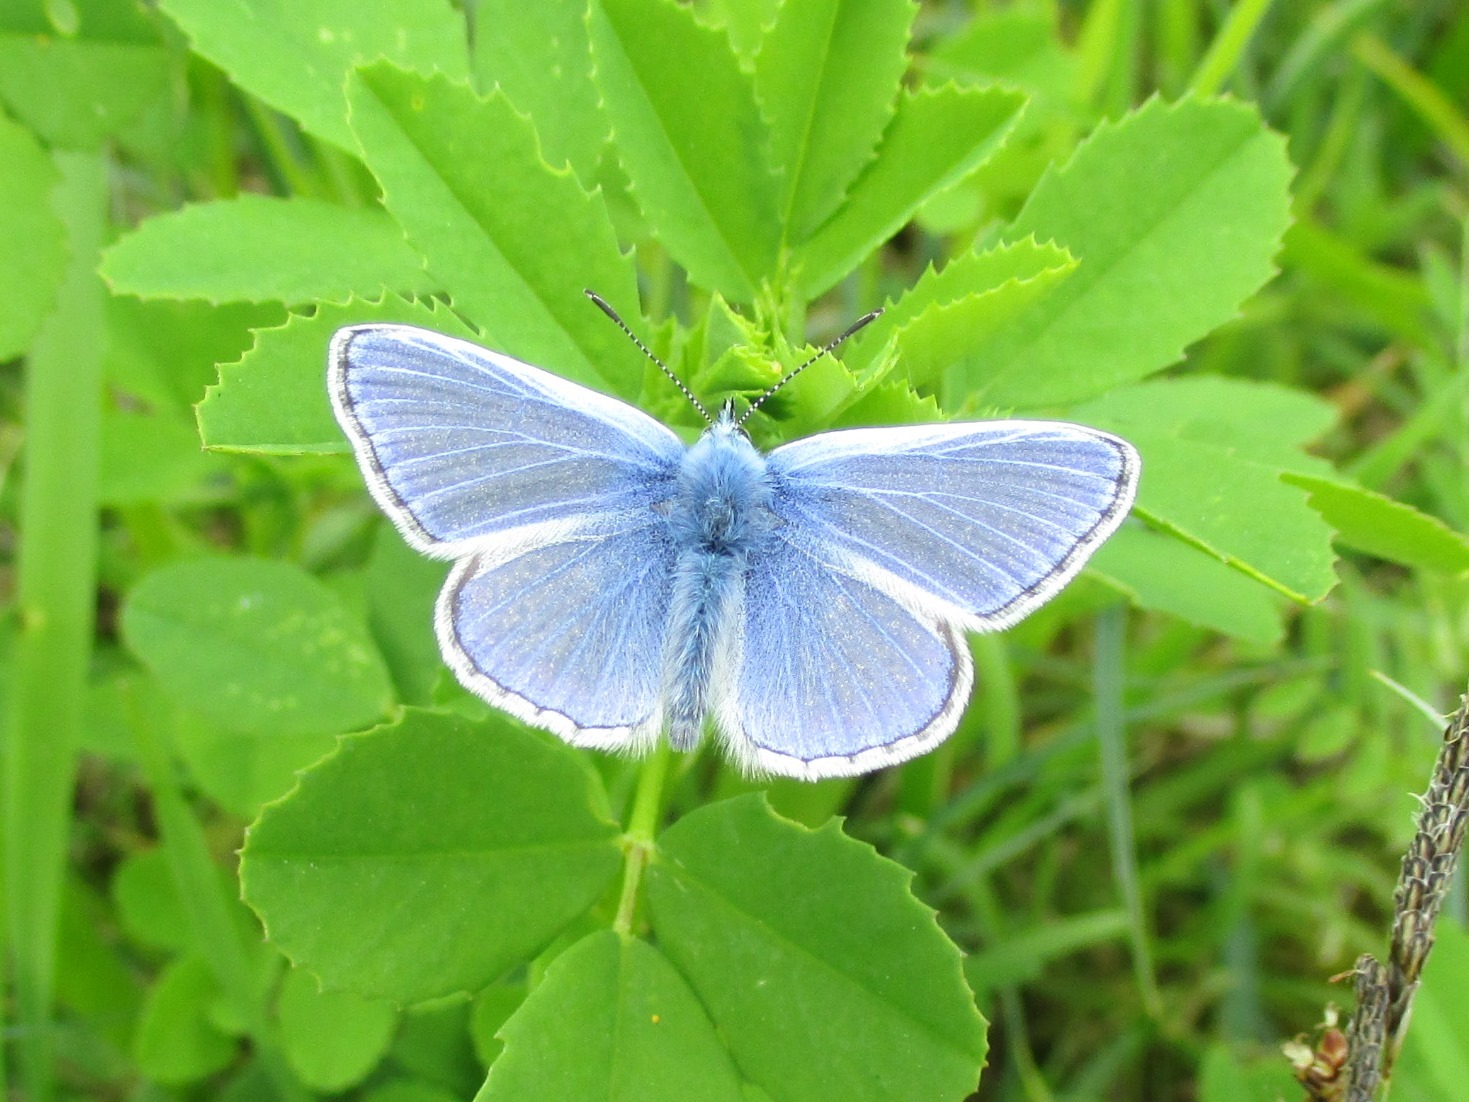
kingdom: Animalia
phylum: Arthropoda
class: Insecta
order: Lepidoptera
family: Lycaenidae
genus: Polyommatus
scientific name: Polyommatus icarus
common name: Common blue
